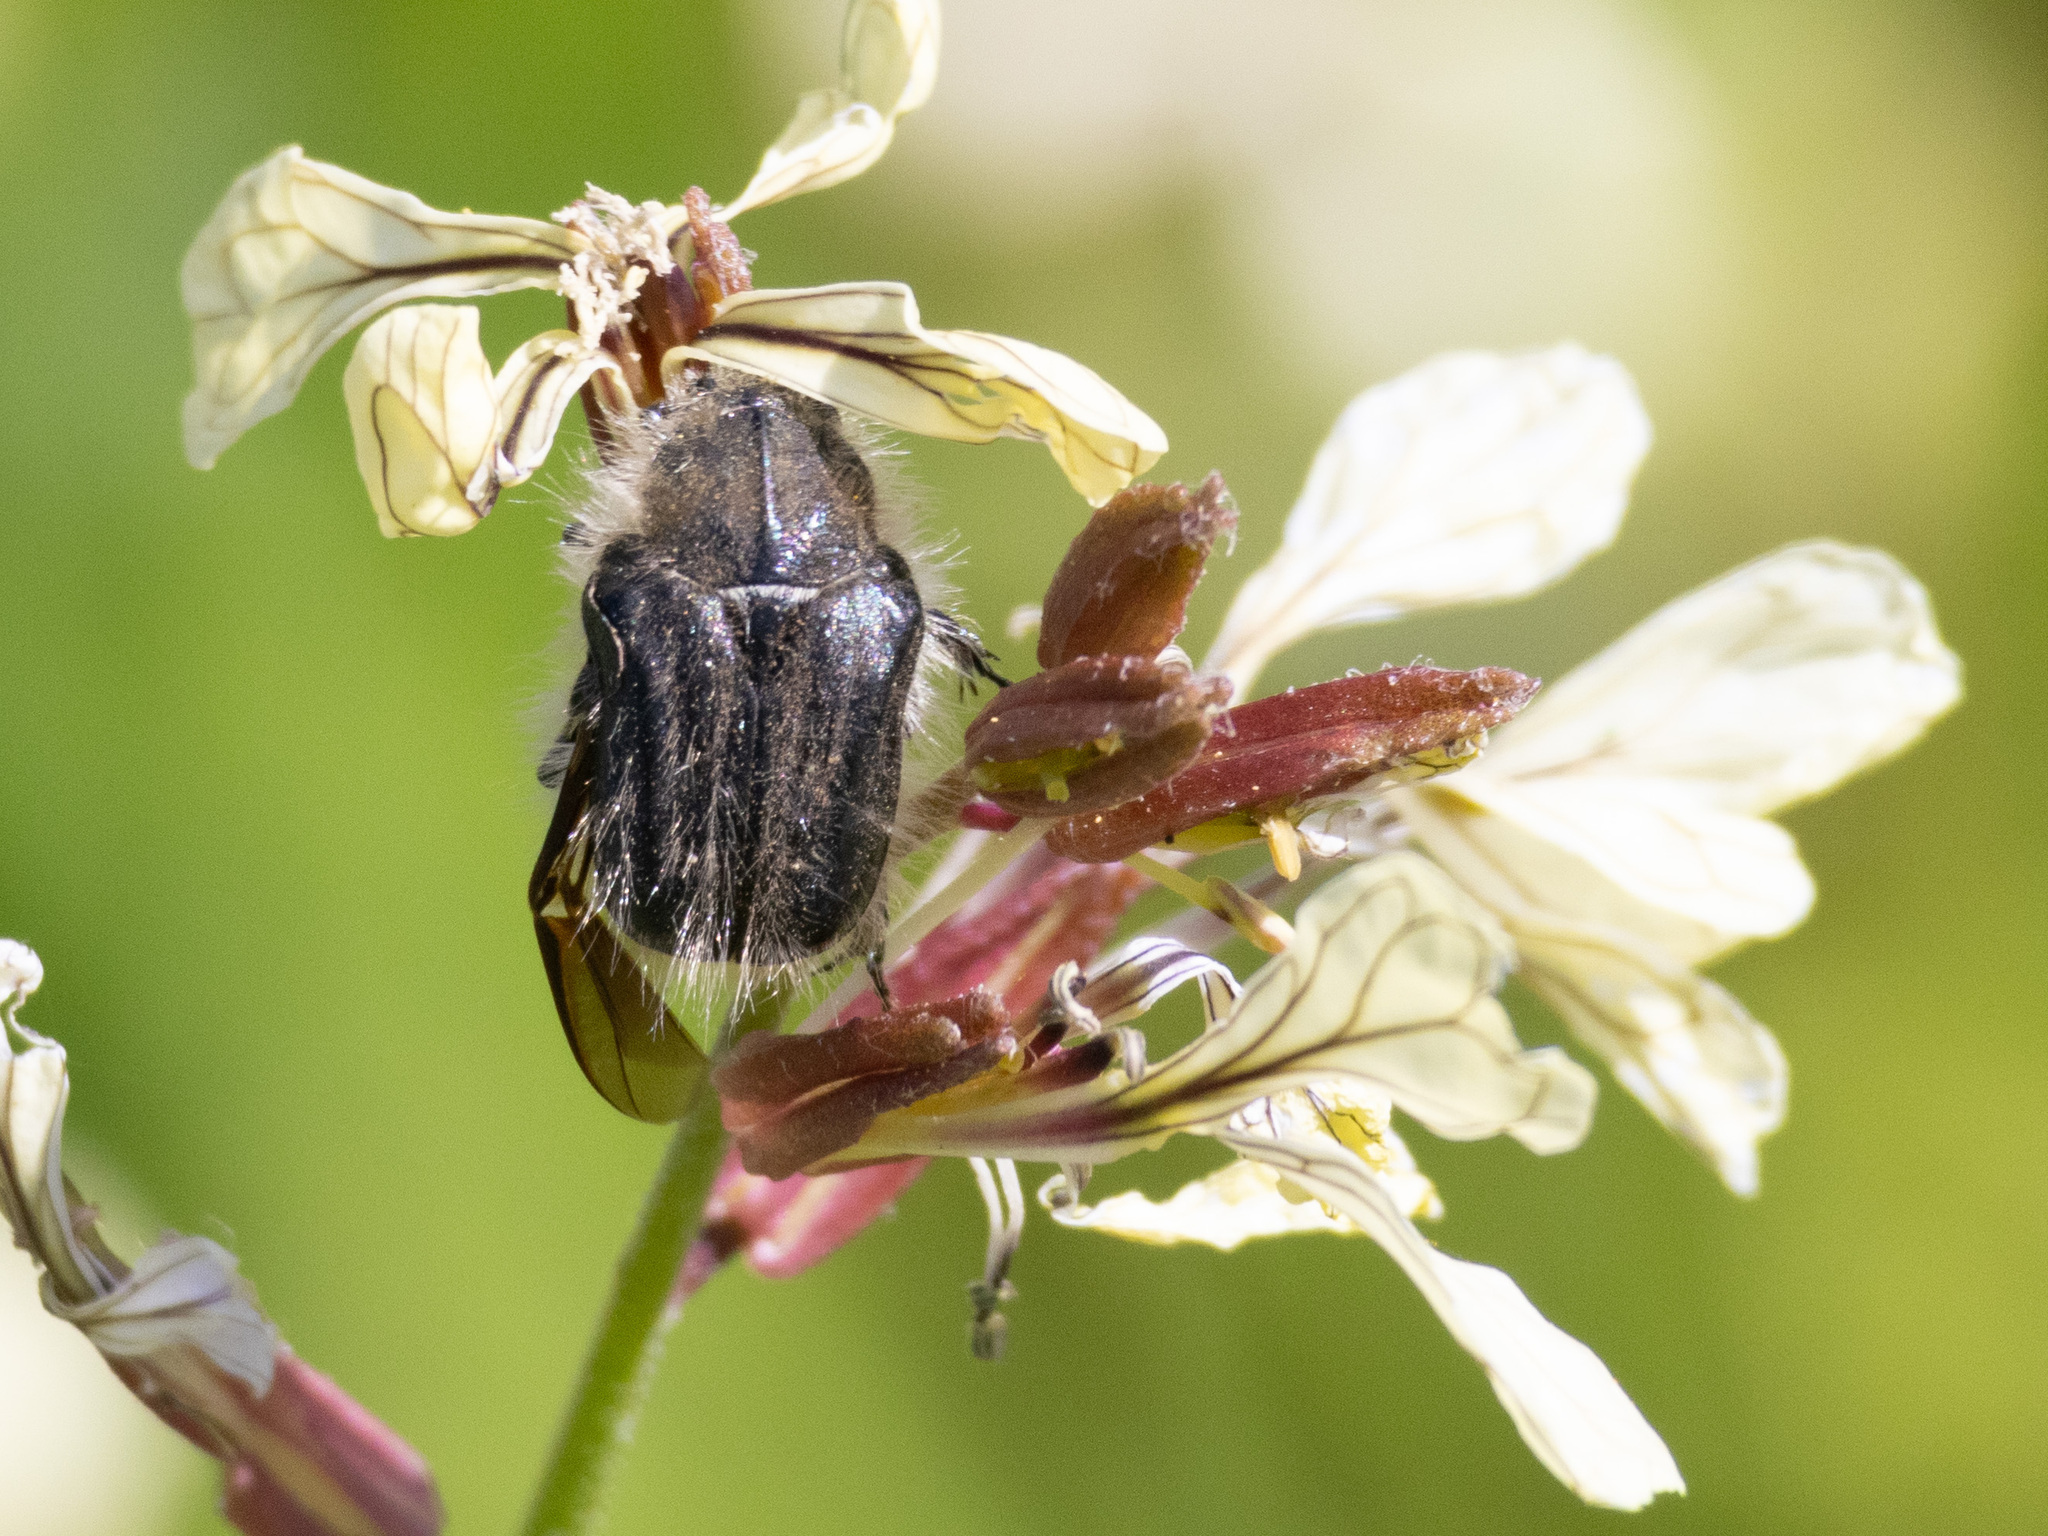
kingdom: Animalia
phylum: Arthropoda
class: Insecta
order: Coleoptera
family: Scarabaeidae
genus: Tropinota
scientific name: Tropinota squalida
